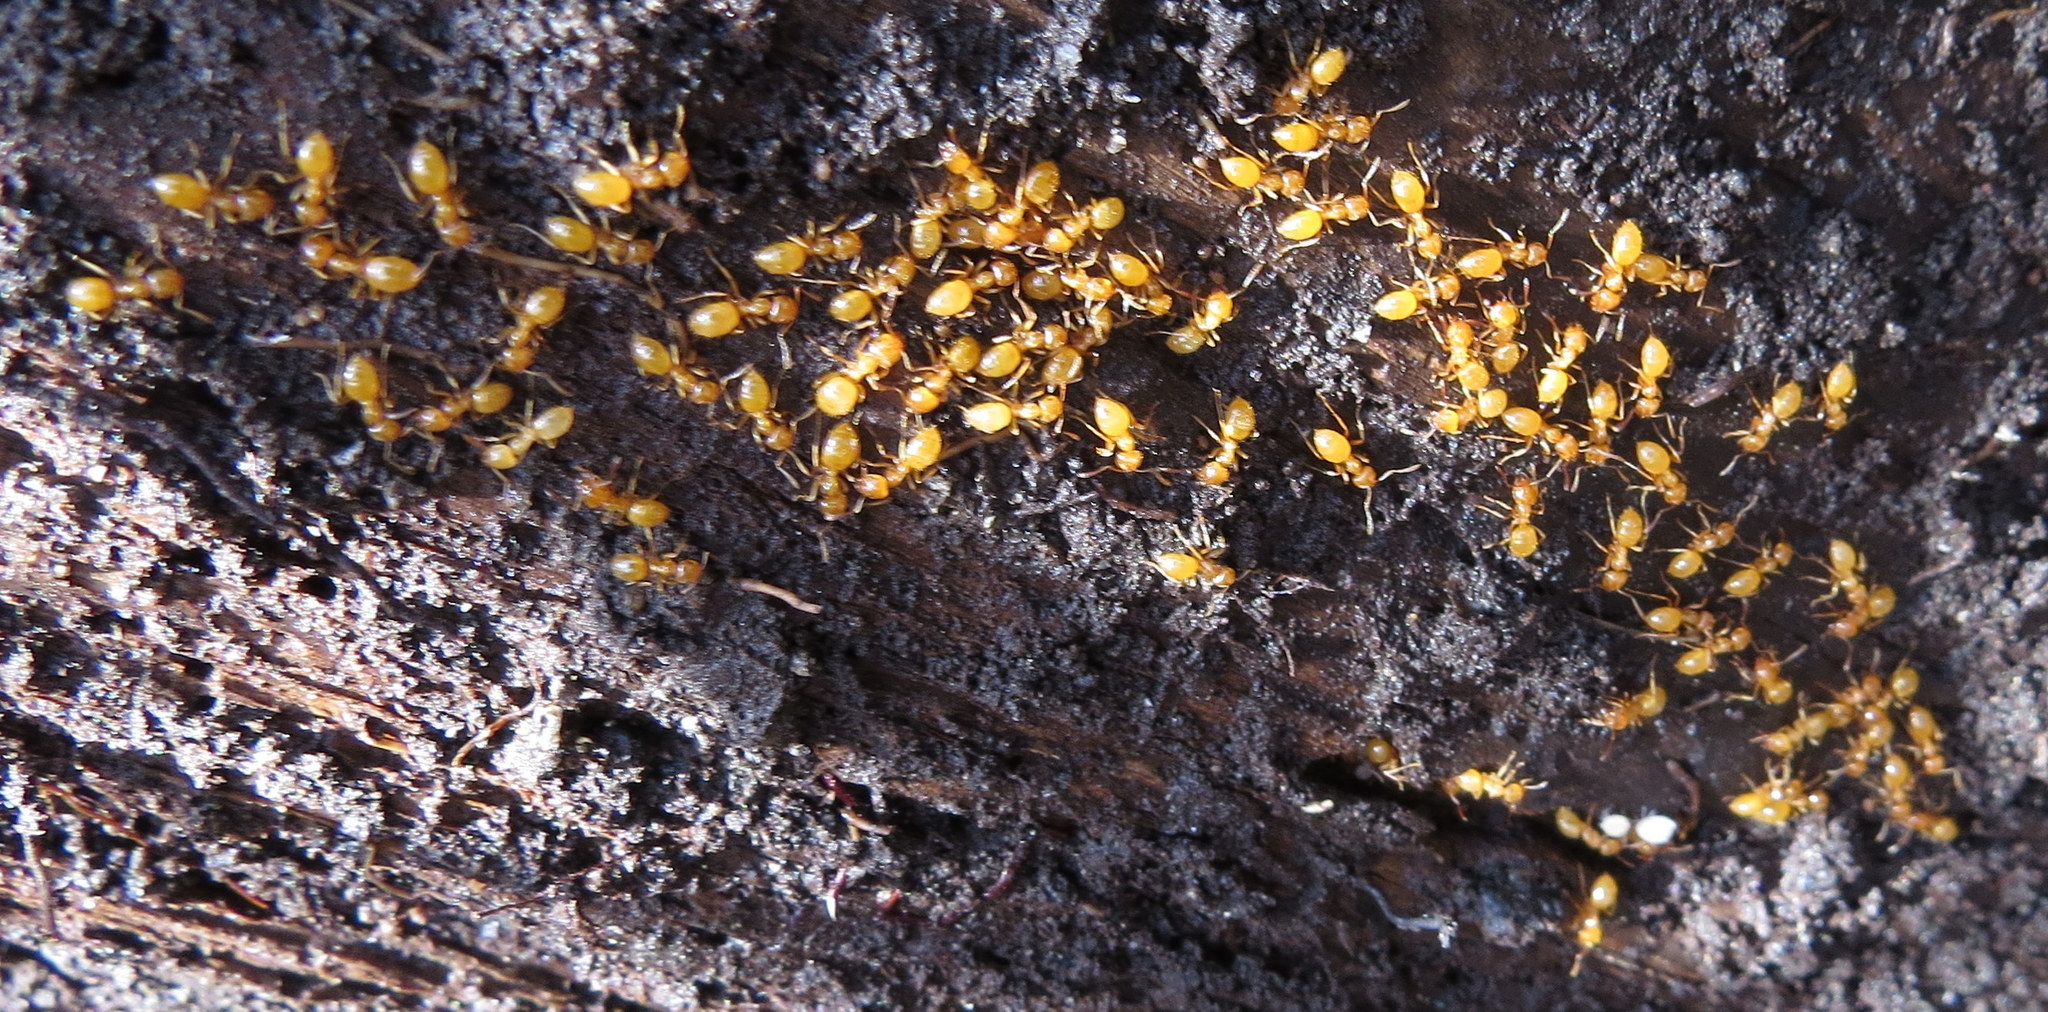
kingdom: Animalia
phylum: Arthropoda
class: Insecta
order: Hymenoptera
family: Formicidae
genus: Lasius
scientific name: Lasius
